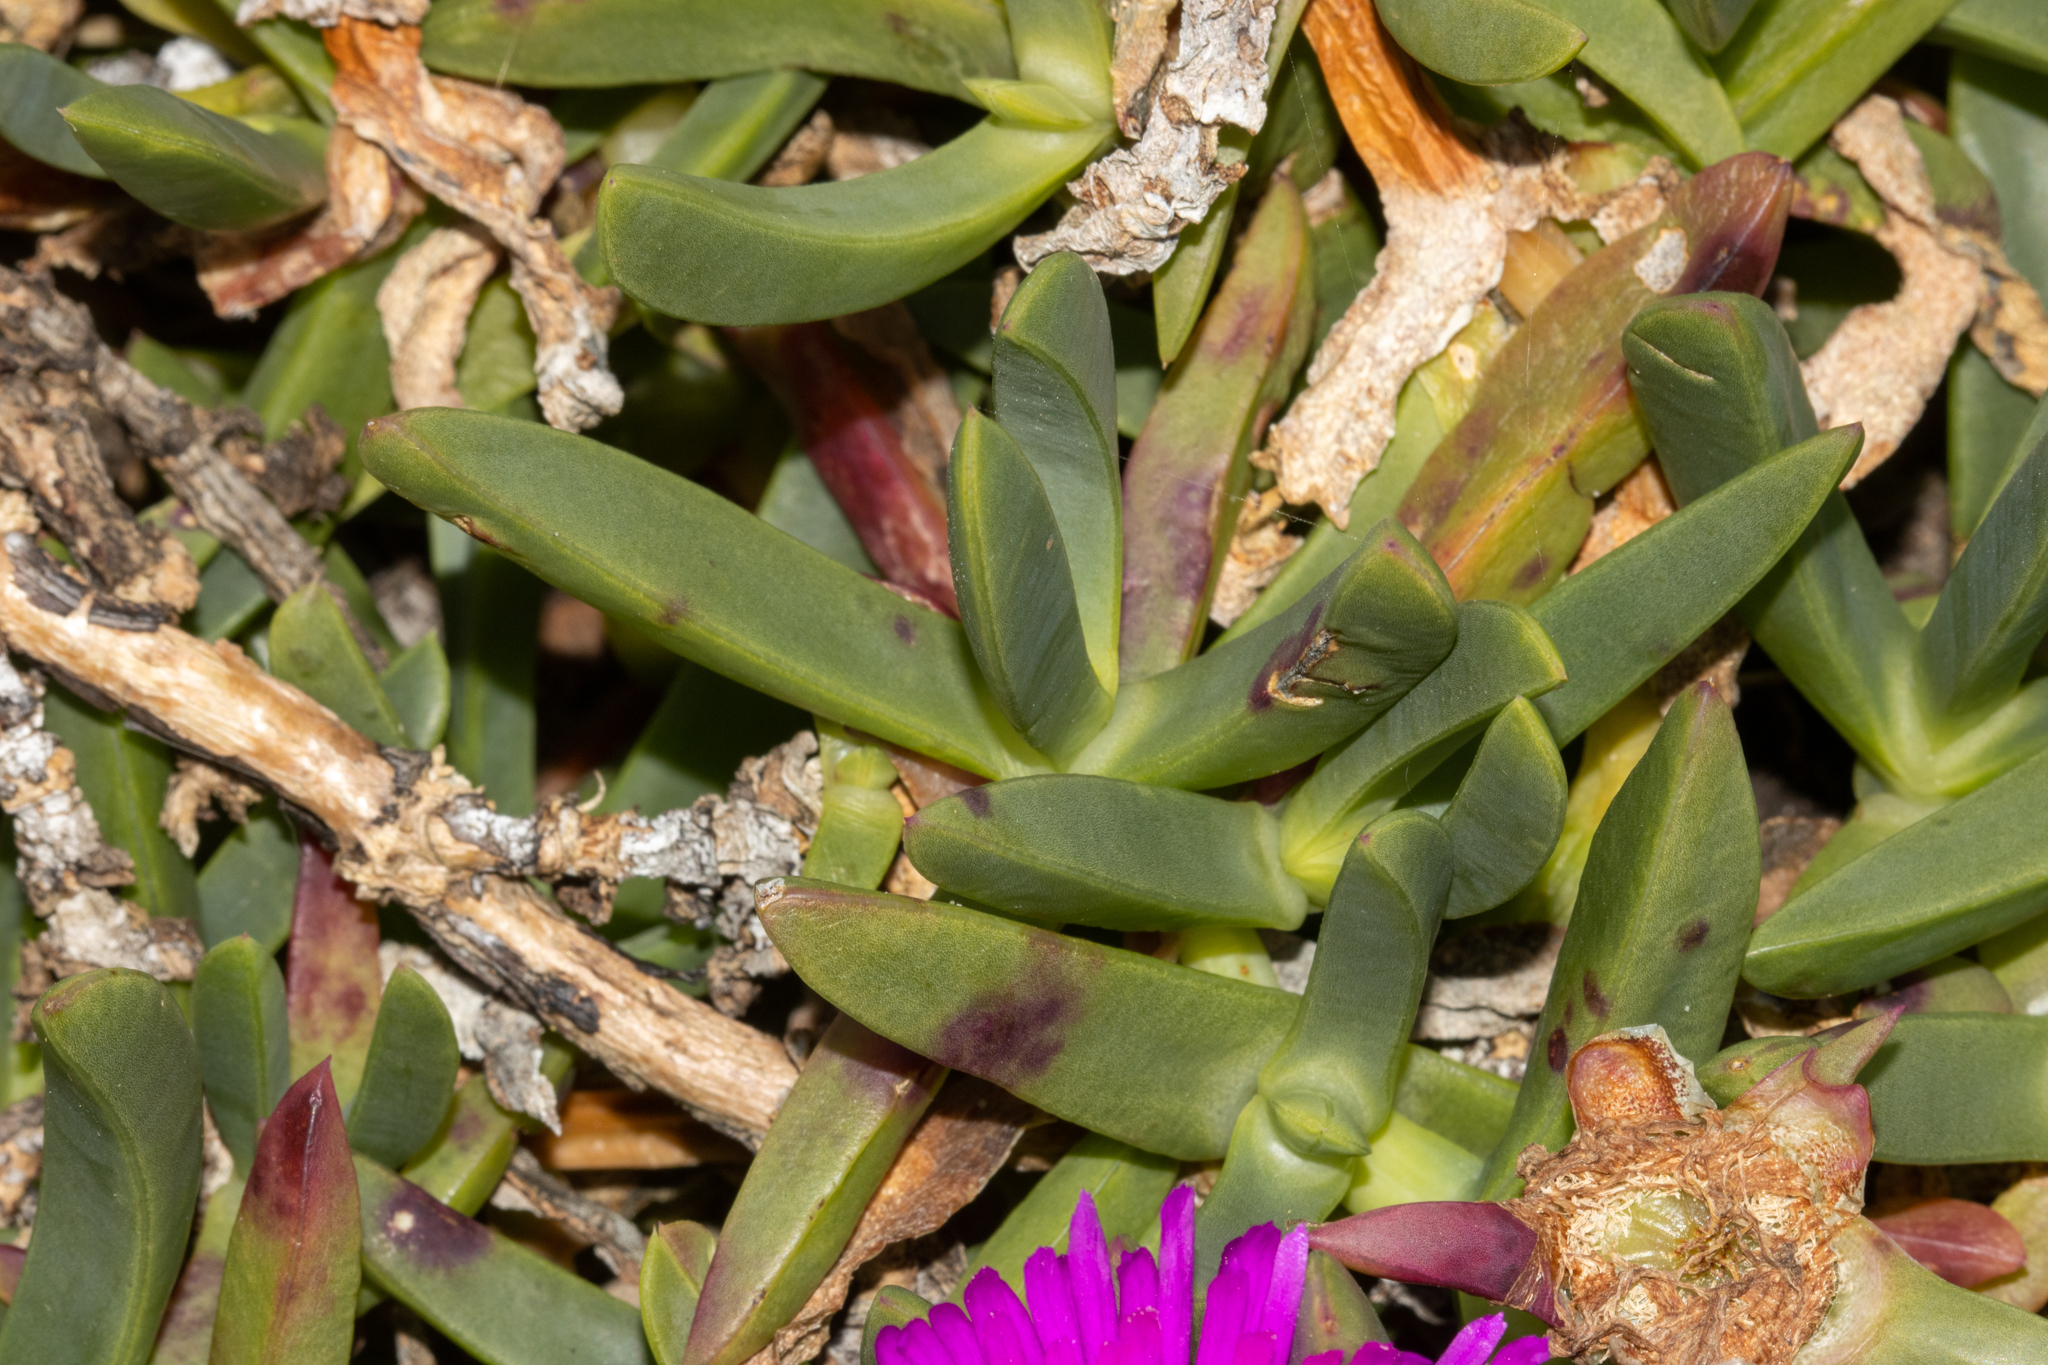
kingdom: Plantae
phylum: Tracheophyta
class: Magnoliopsida
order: Caryophyllales
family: Aizoaceae
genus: Carpobrotus
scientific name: Carpobrotus glaucescens
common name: Angular sea-fig
